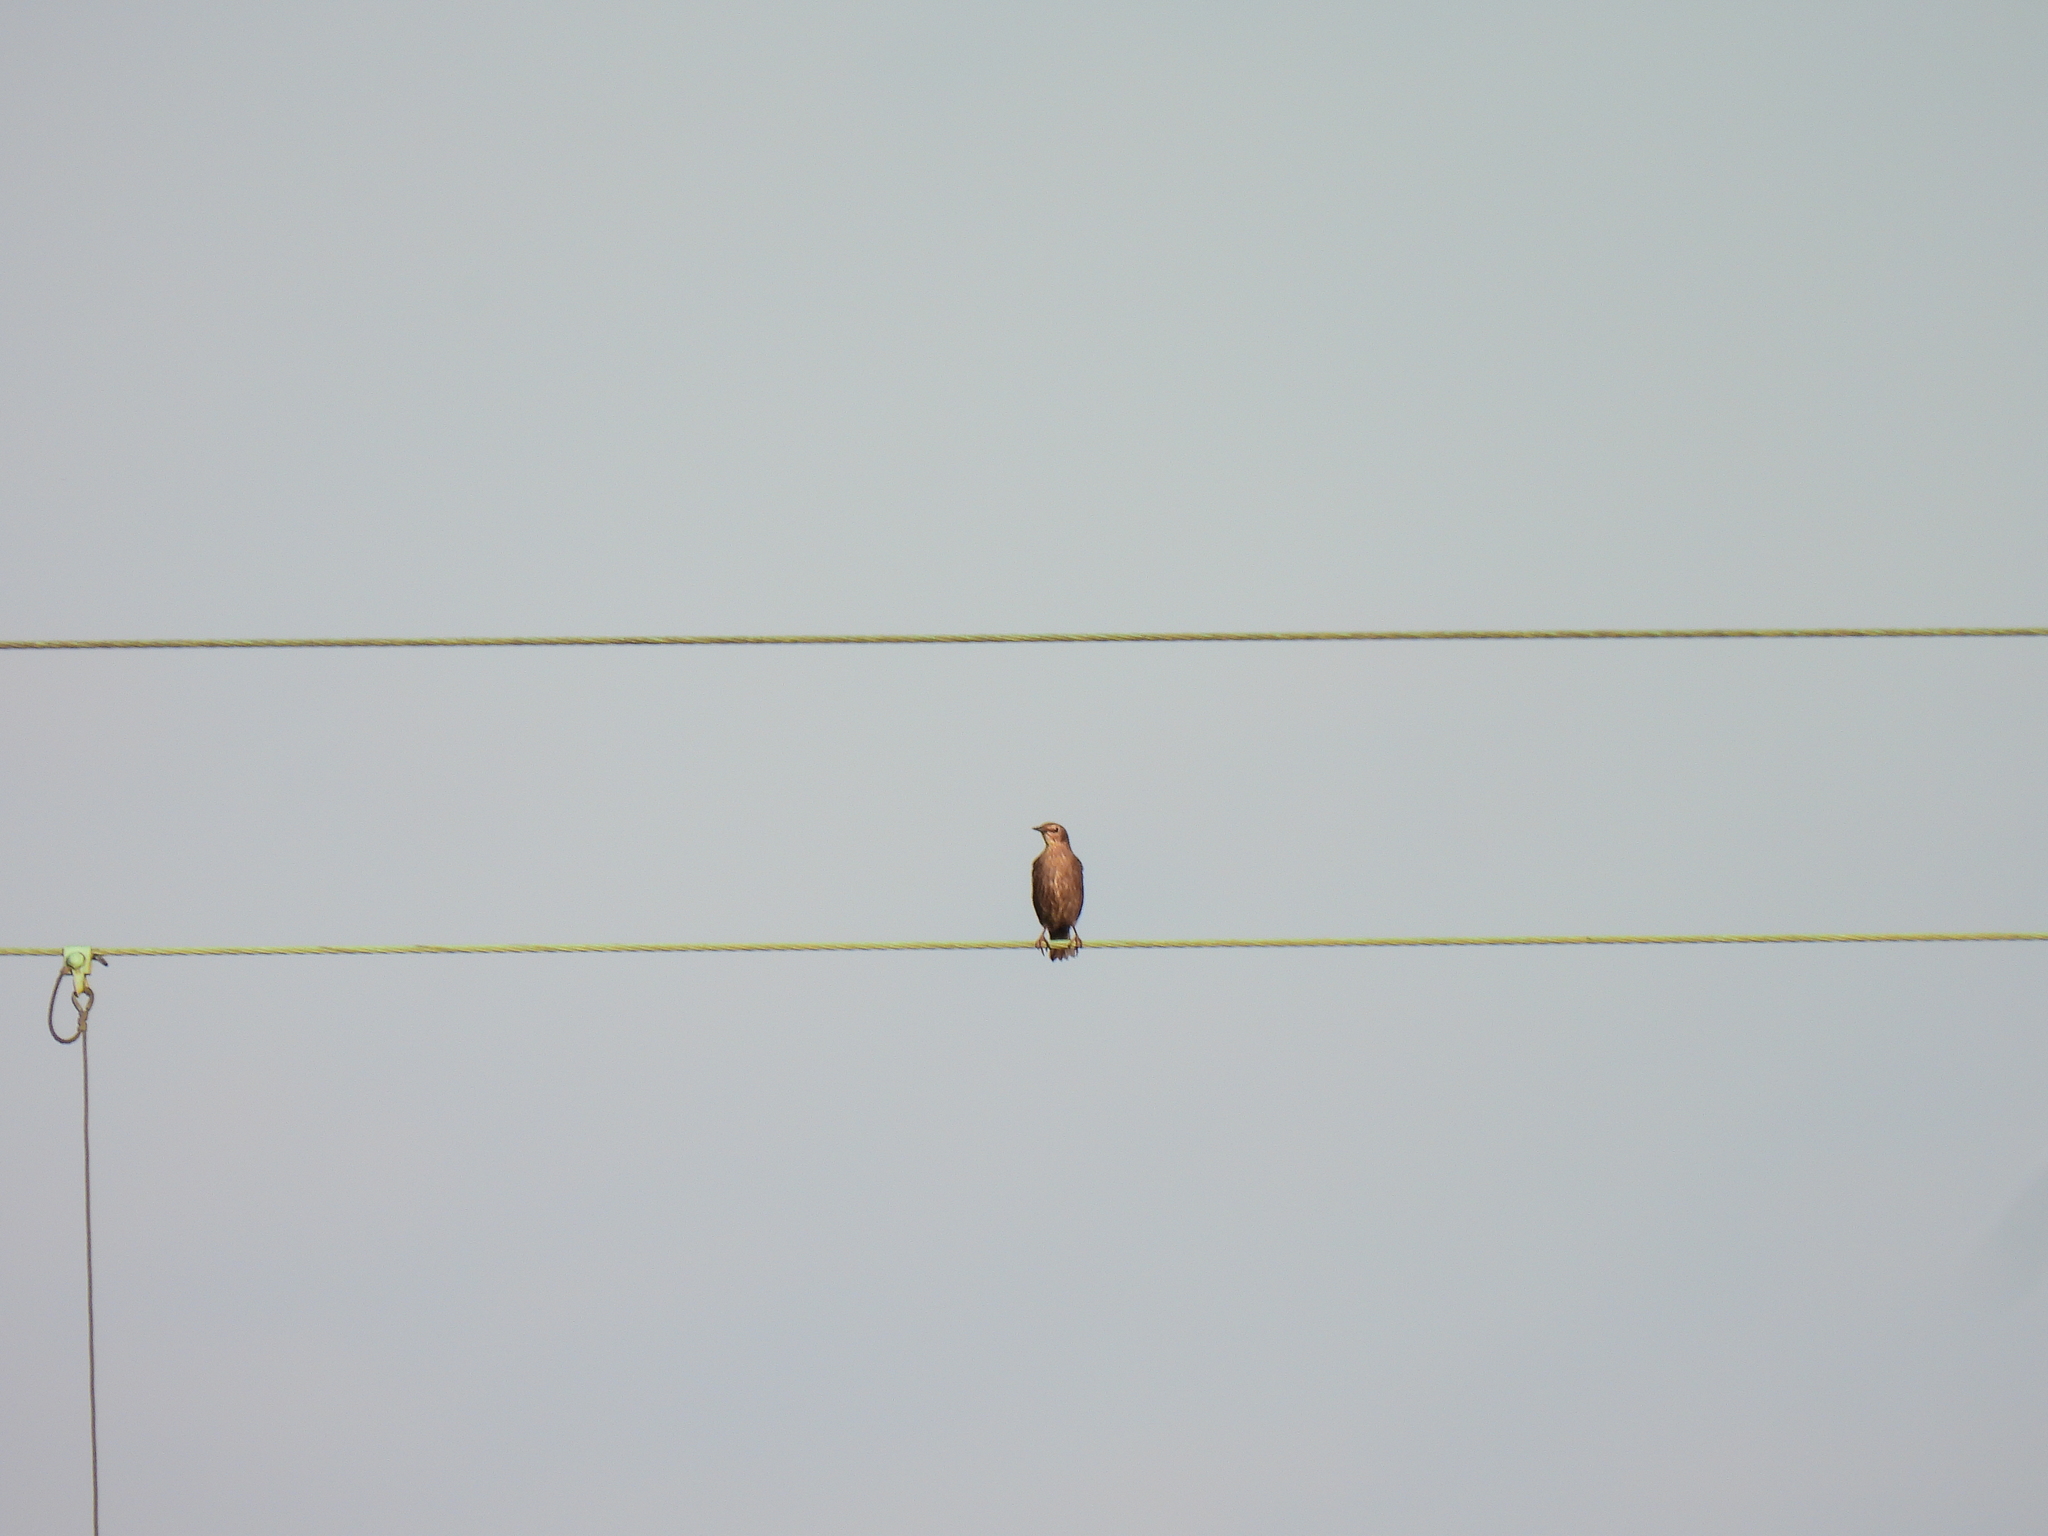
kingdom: Animalia
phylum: Chordata
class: Aves
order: Passeriformes
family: Sturnidae
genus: Sturnus
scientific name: Sturnus vulgaris
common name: Common starling
